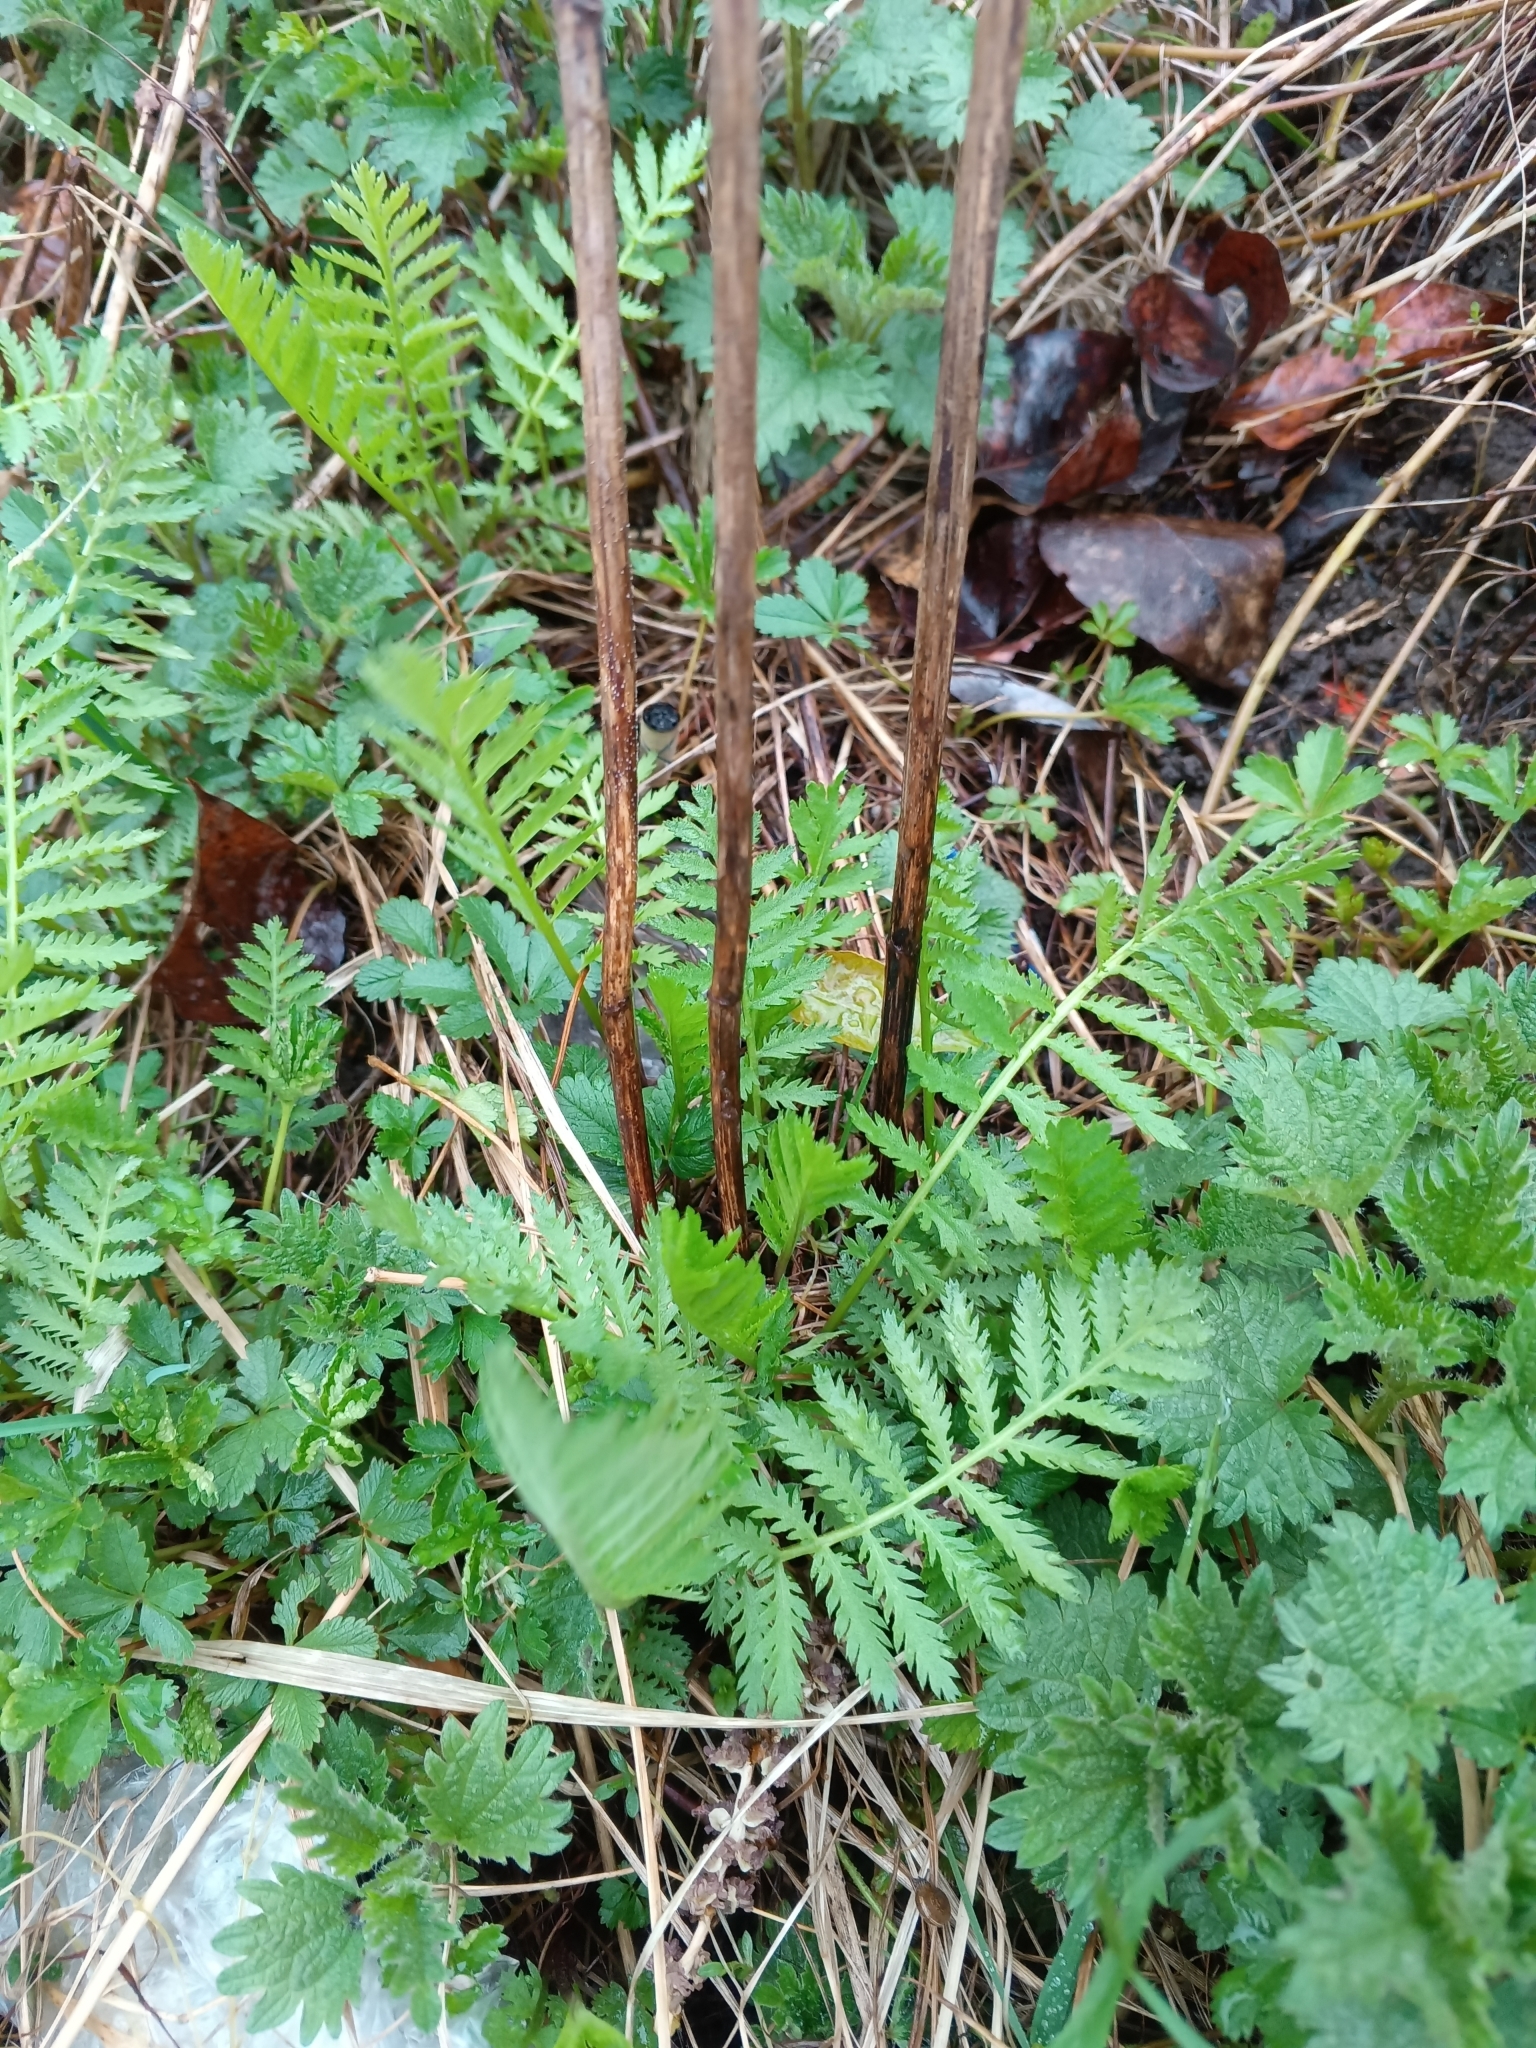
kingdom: Plantae
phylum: Tracheophyta
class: Magnoliopsida
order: Asterales
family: Asteraceae
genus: Tanacetum
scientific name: Tanacetum vulgare
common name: Common tansy
